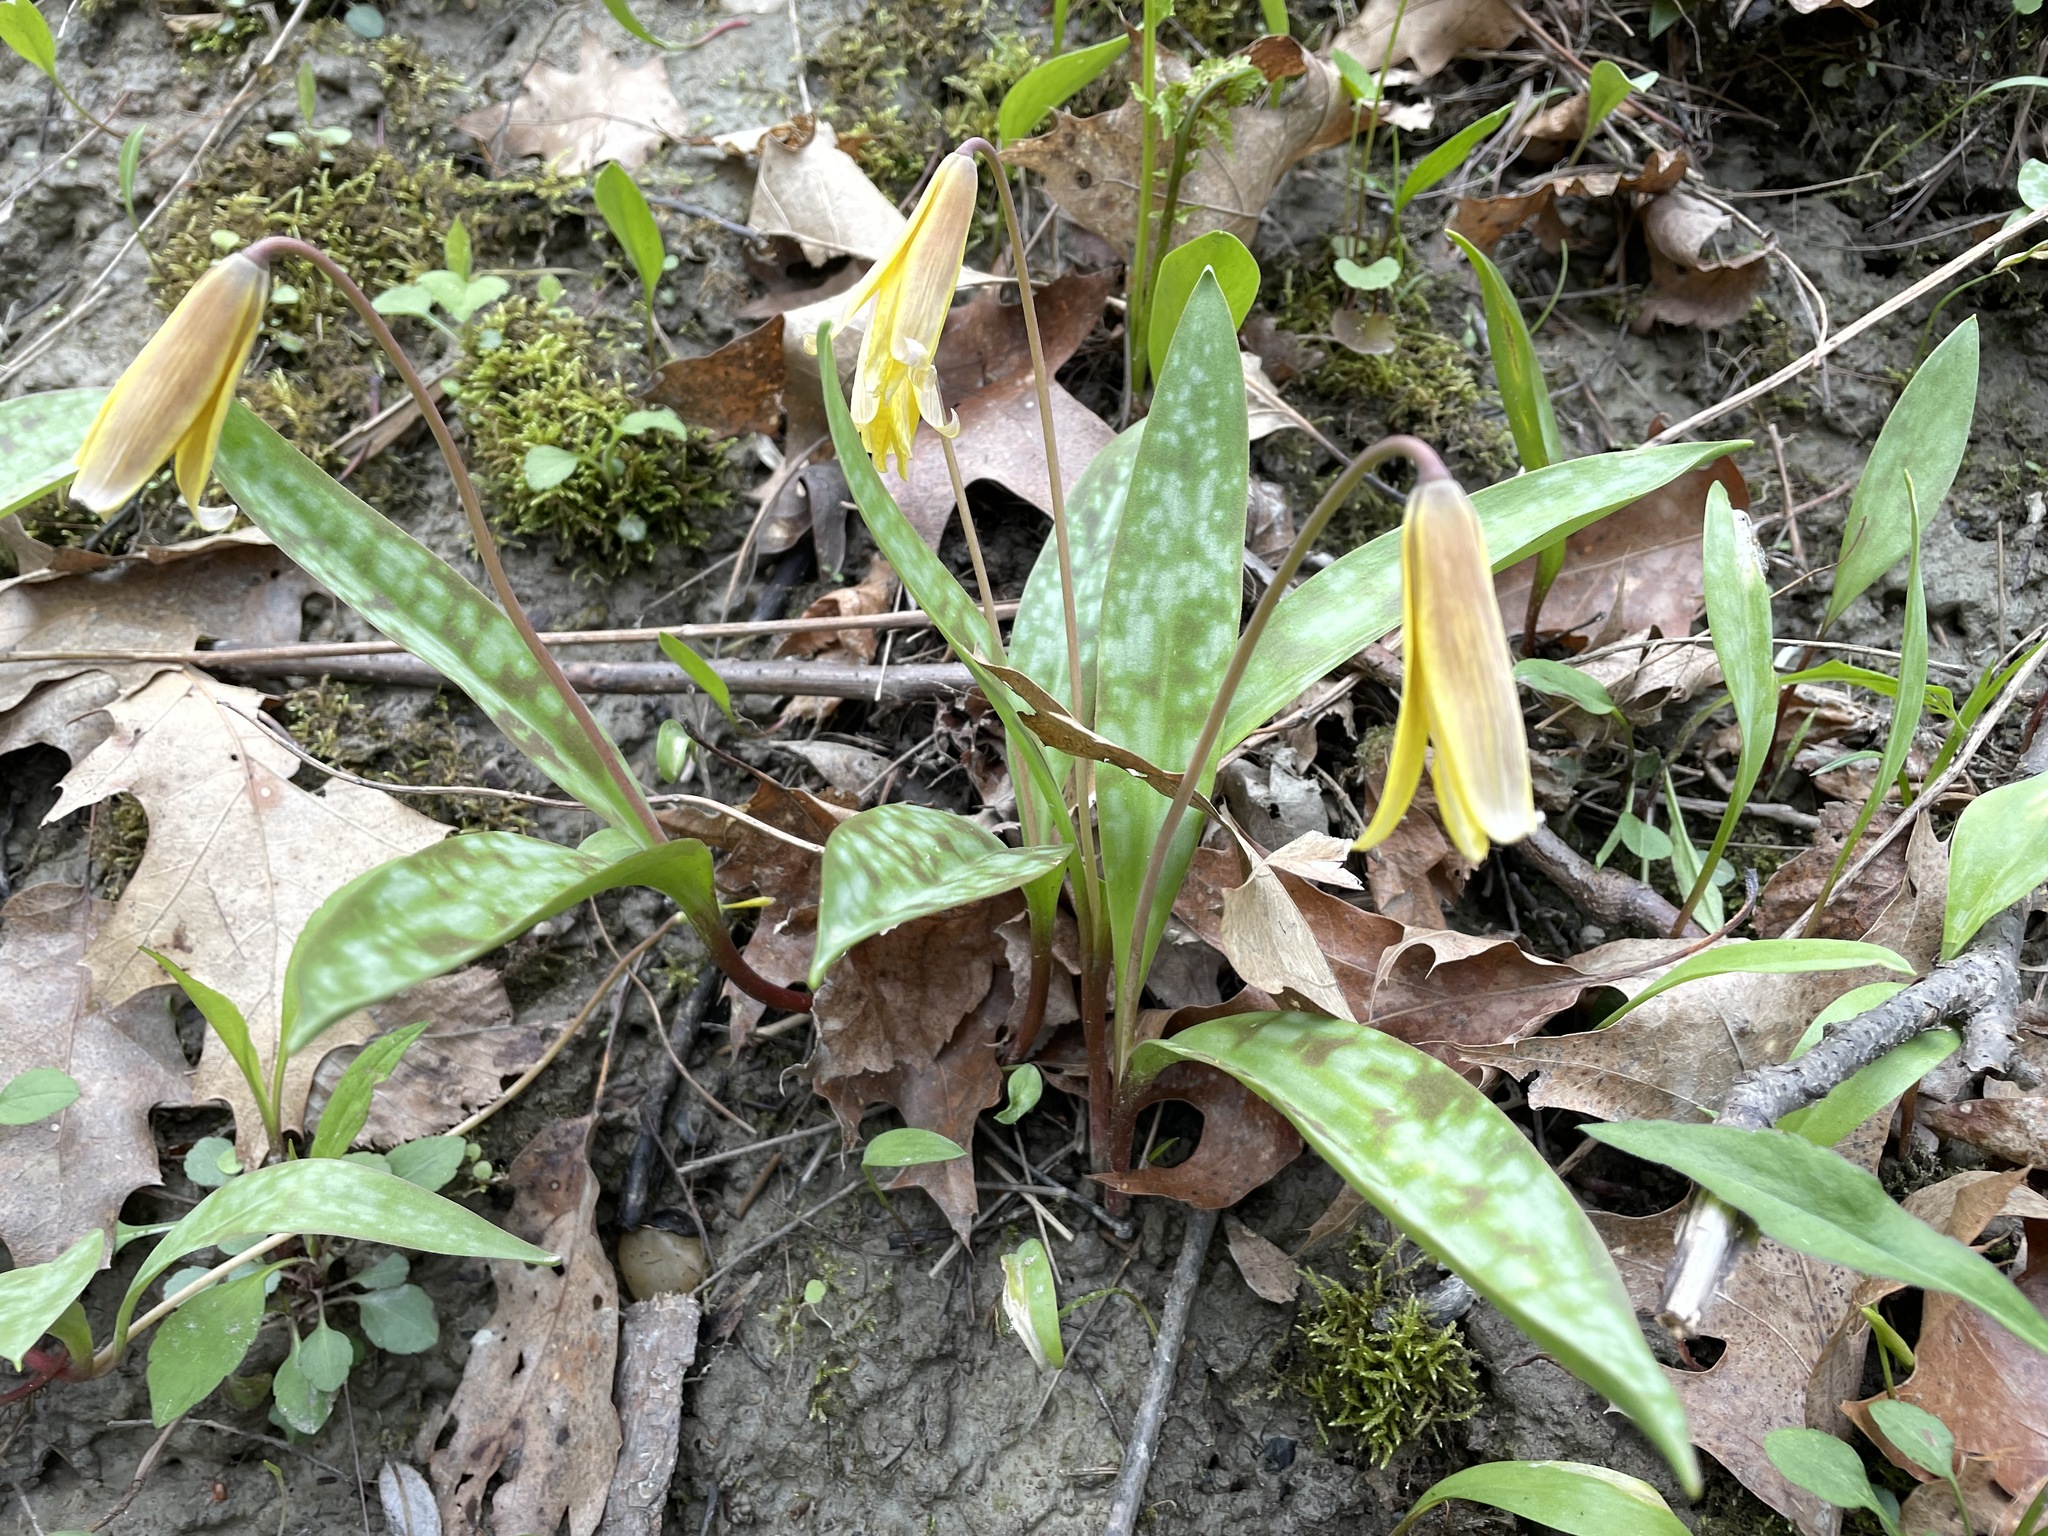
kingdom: Plantae
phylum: Tracheophyta
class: Liliopsida
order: Liliales
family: Liliaceae
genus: Erythronium
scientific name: Erythronium americanum
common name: Yellow adder's-tongue
